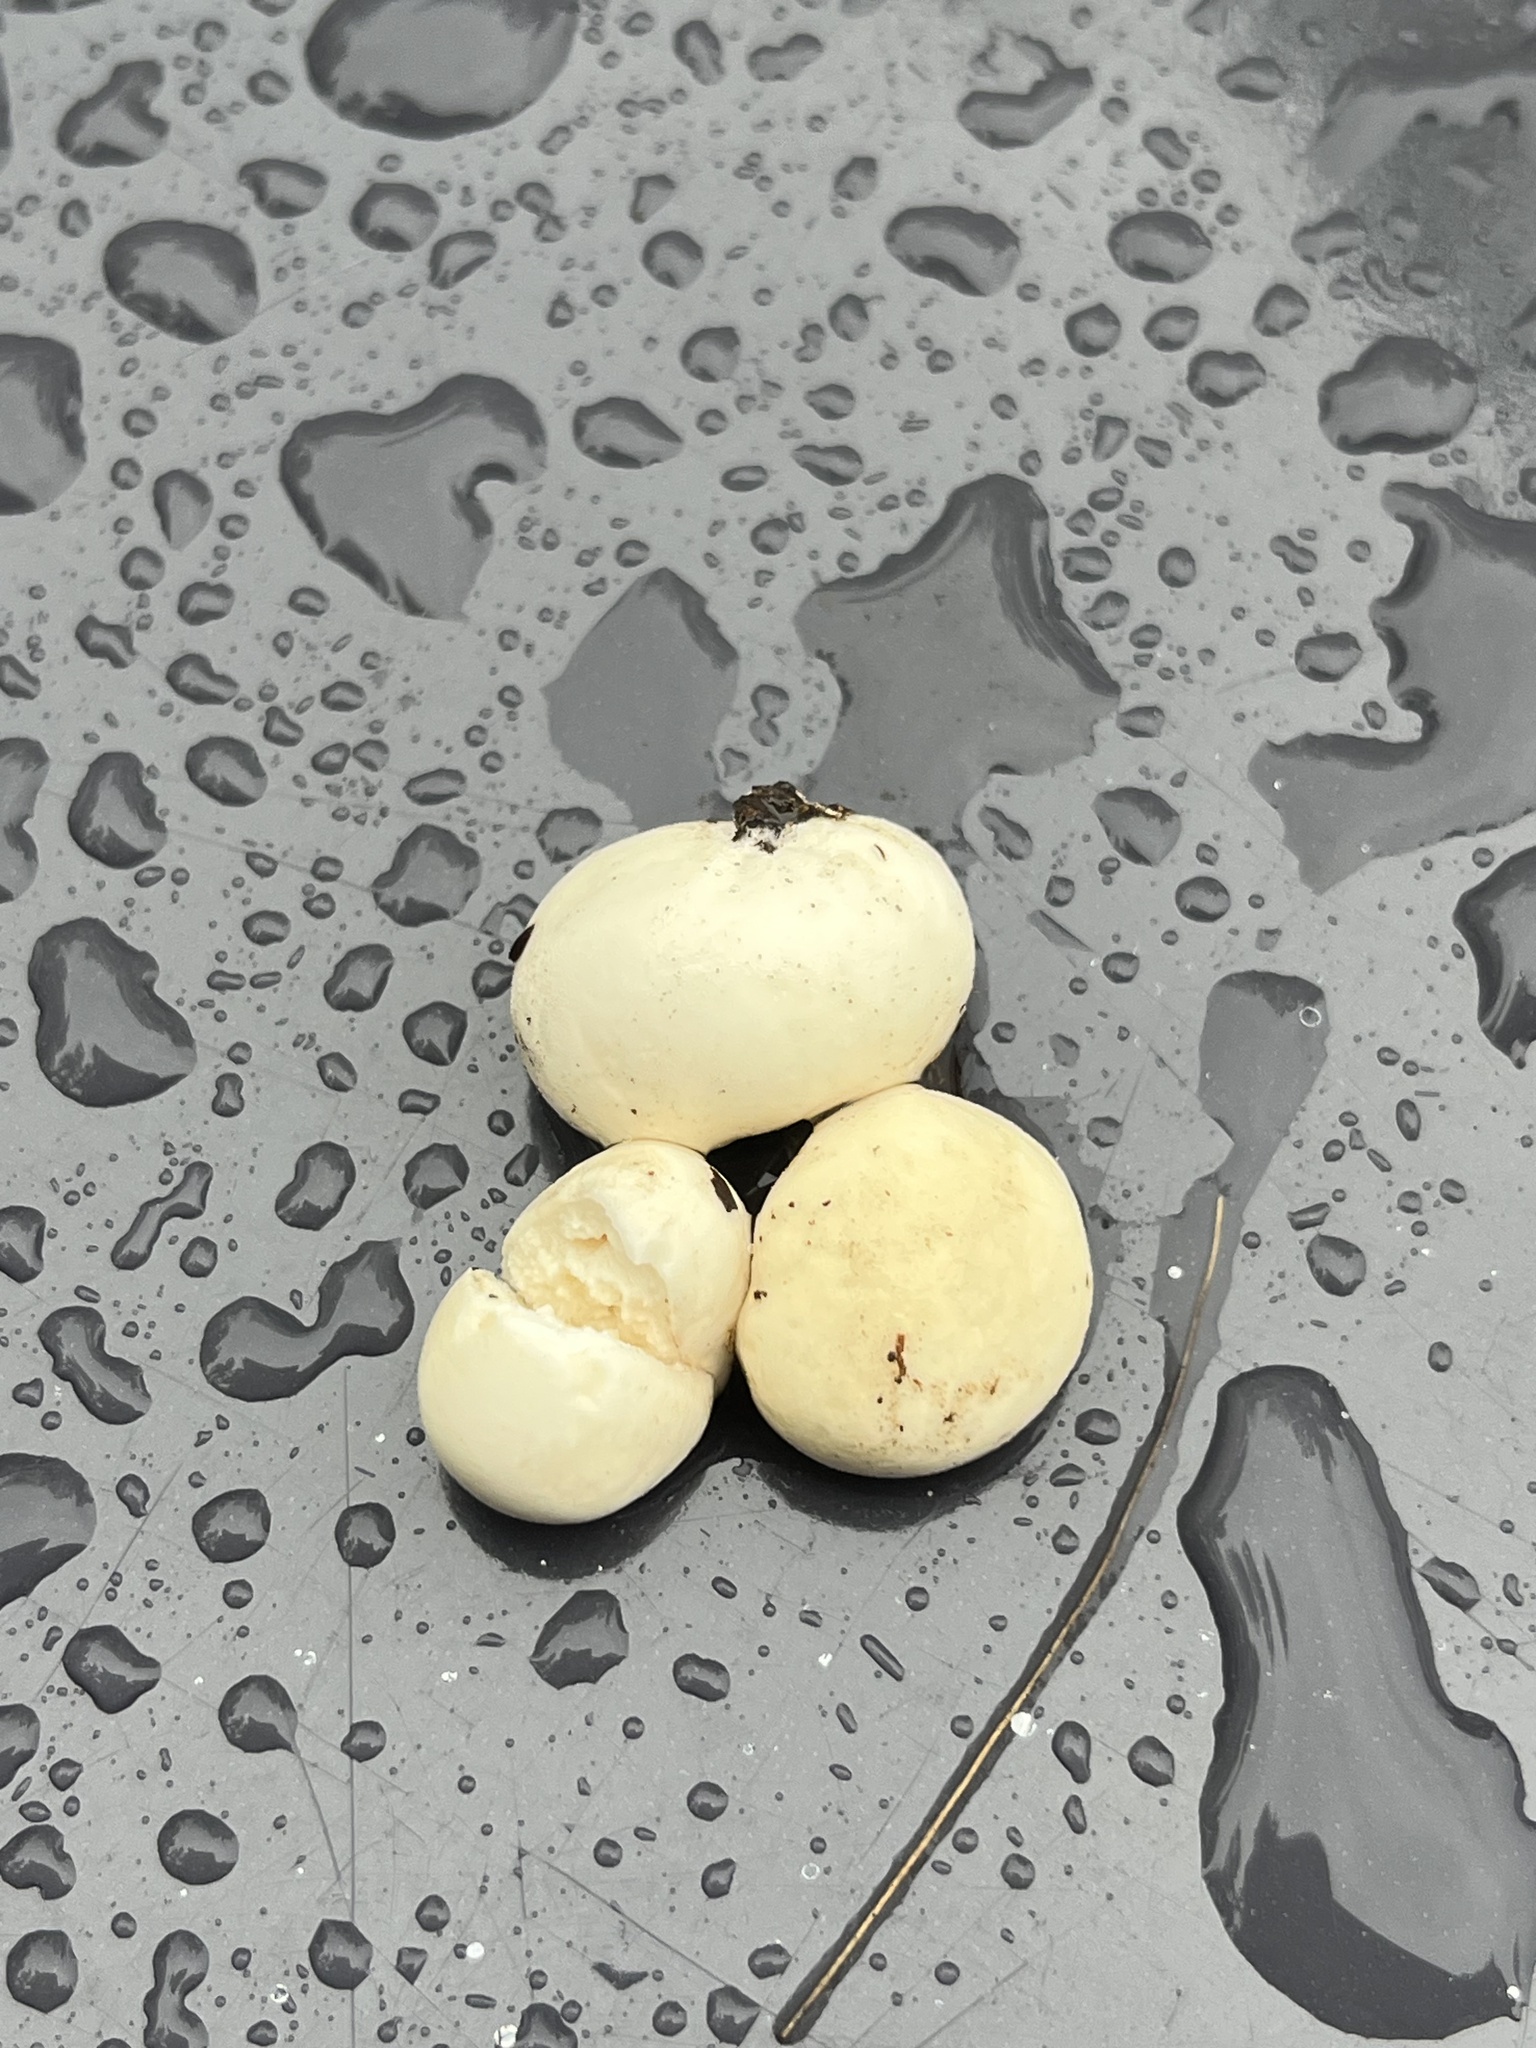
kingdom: Fungi
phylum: Basidiomycota
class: Agaricomycetes
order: Agaricales
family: Lycoperdaceae
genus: Lycoperdon
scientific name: Lycoperdon perlatum
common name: Common puffball
